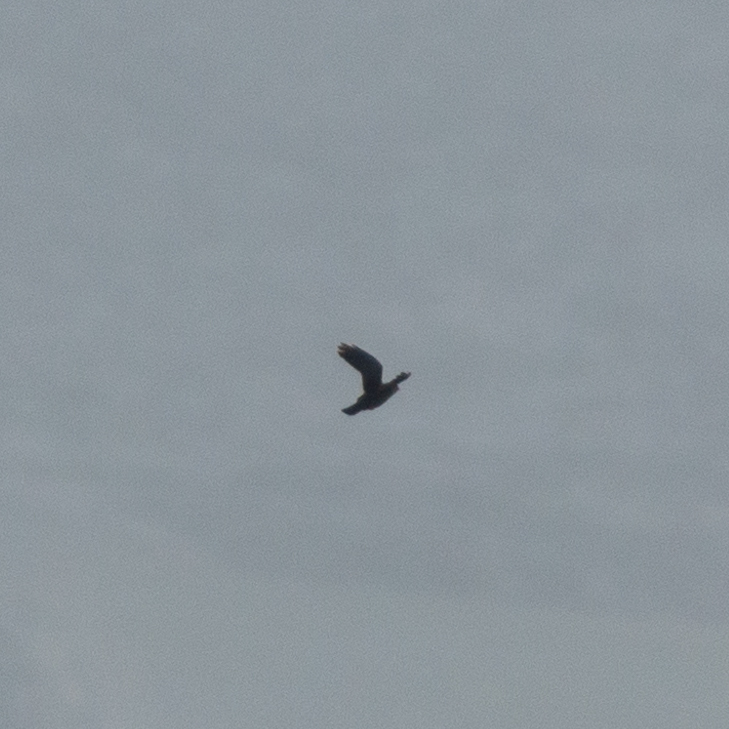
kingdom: Animalia
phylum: Chordata
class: Aves
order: Passeriformes
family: Corvidae
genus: Corvus
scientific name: Corvus corone
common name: Carrion crow
